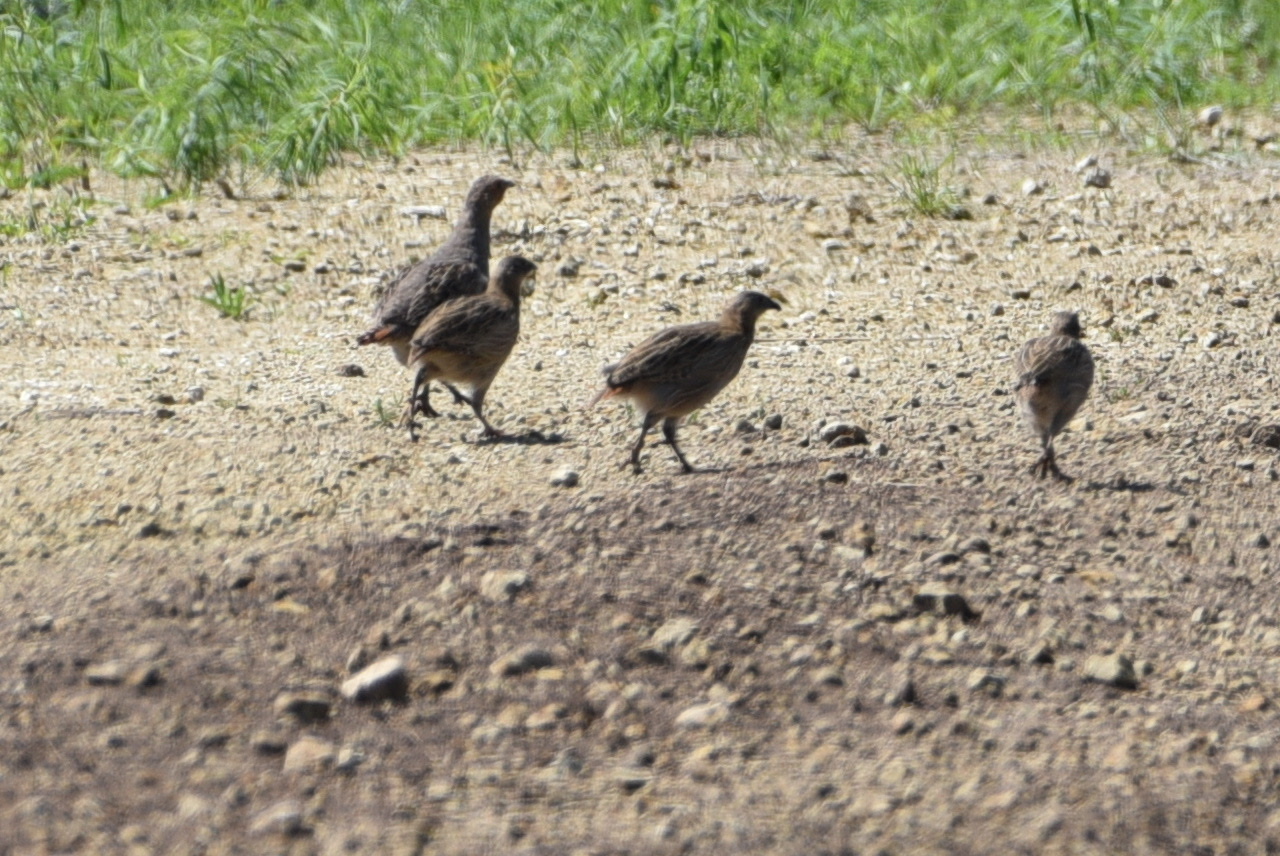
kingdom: Animalia
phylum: Chordata
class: Aves
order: Galliformes
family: Phasianidae
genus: Perdix
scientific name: Perdix perdix
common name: Grey partridge
